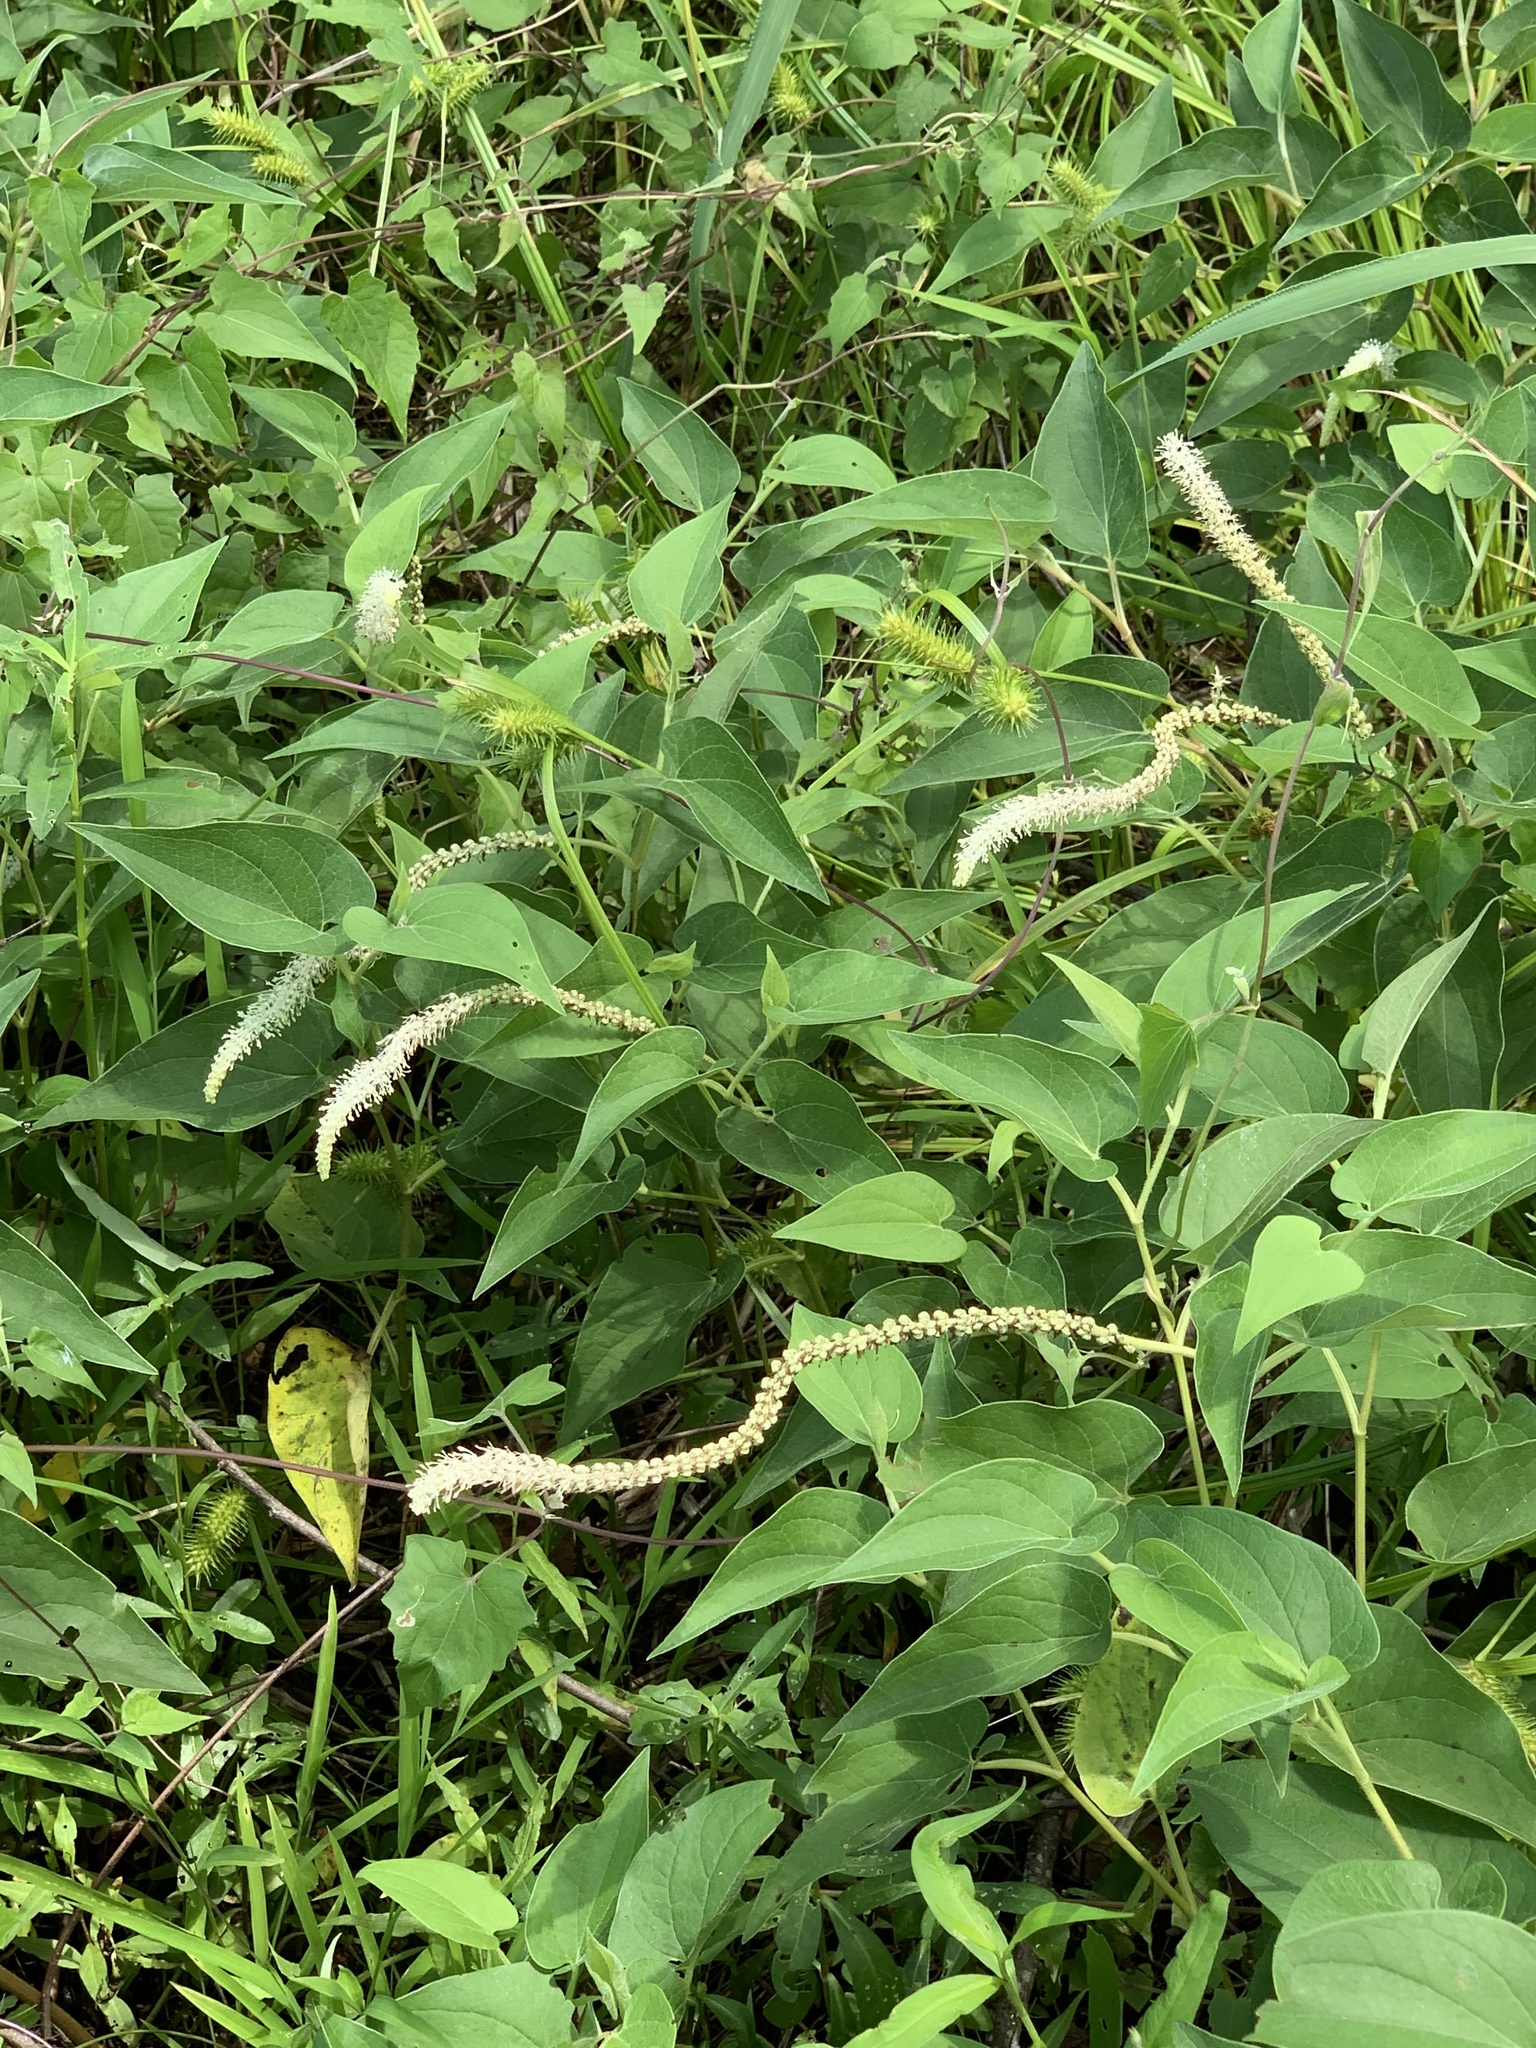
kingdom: Plantae
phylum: Tracheophyta
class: Magnoliopsida
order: Piperales
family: Saururaceae
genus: Saururus
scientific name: Saururus cernuus
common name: Lizard's-tail
